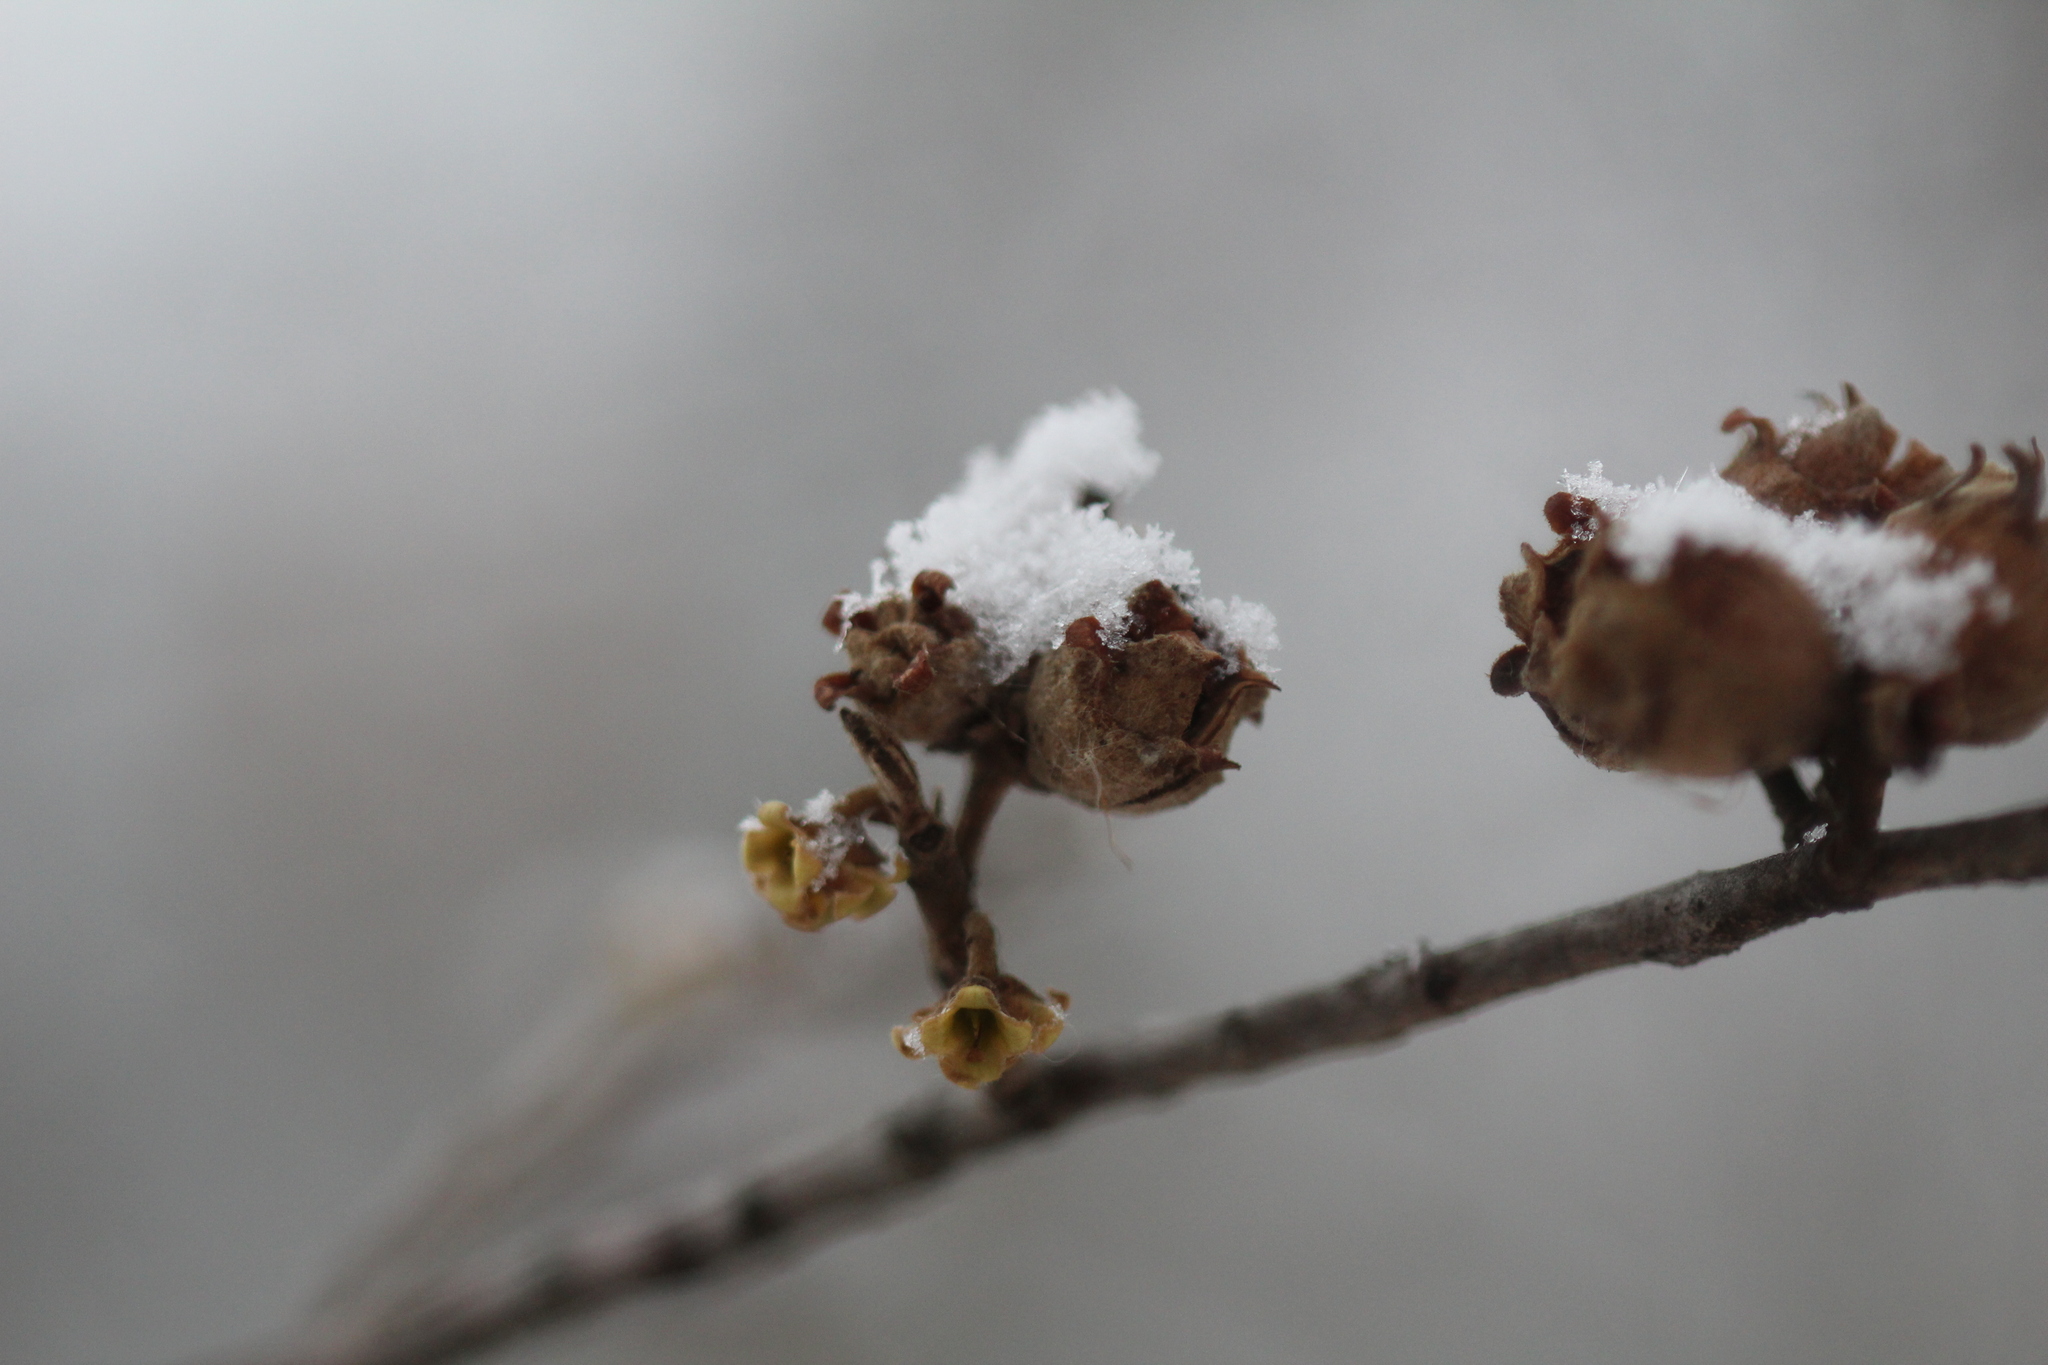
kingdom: Plantae
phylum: Tracheophyta
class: Magnoliopsida
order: Saxifragales
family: Hamamelidaceae
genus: Hamamelis
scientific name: Hamamelis virginiana
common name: Witch-hazel
